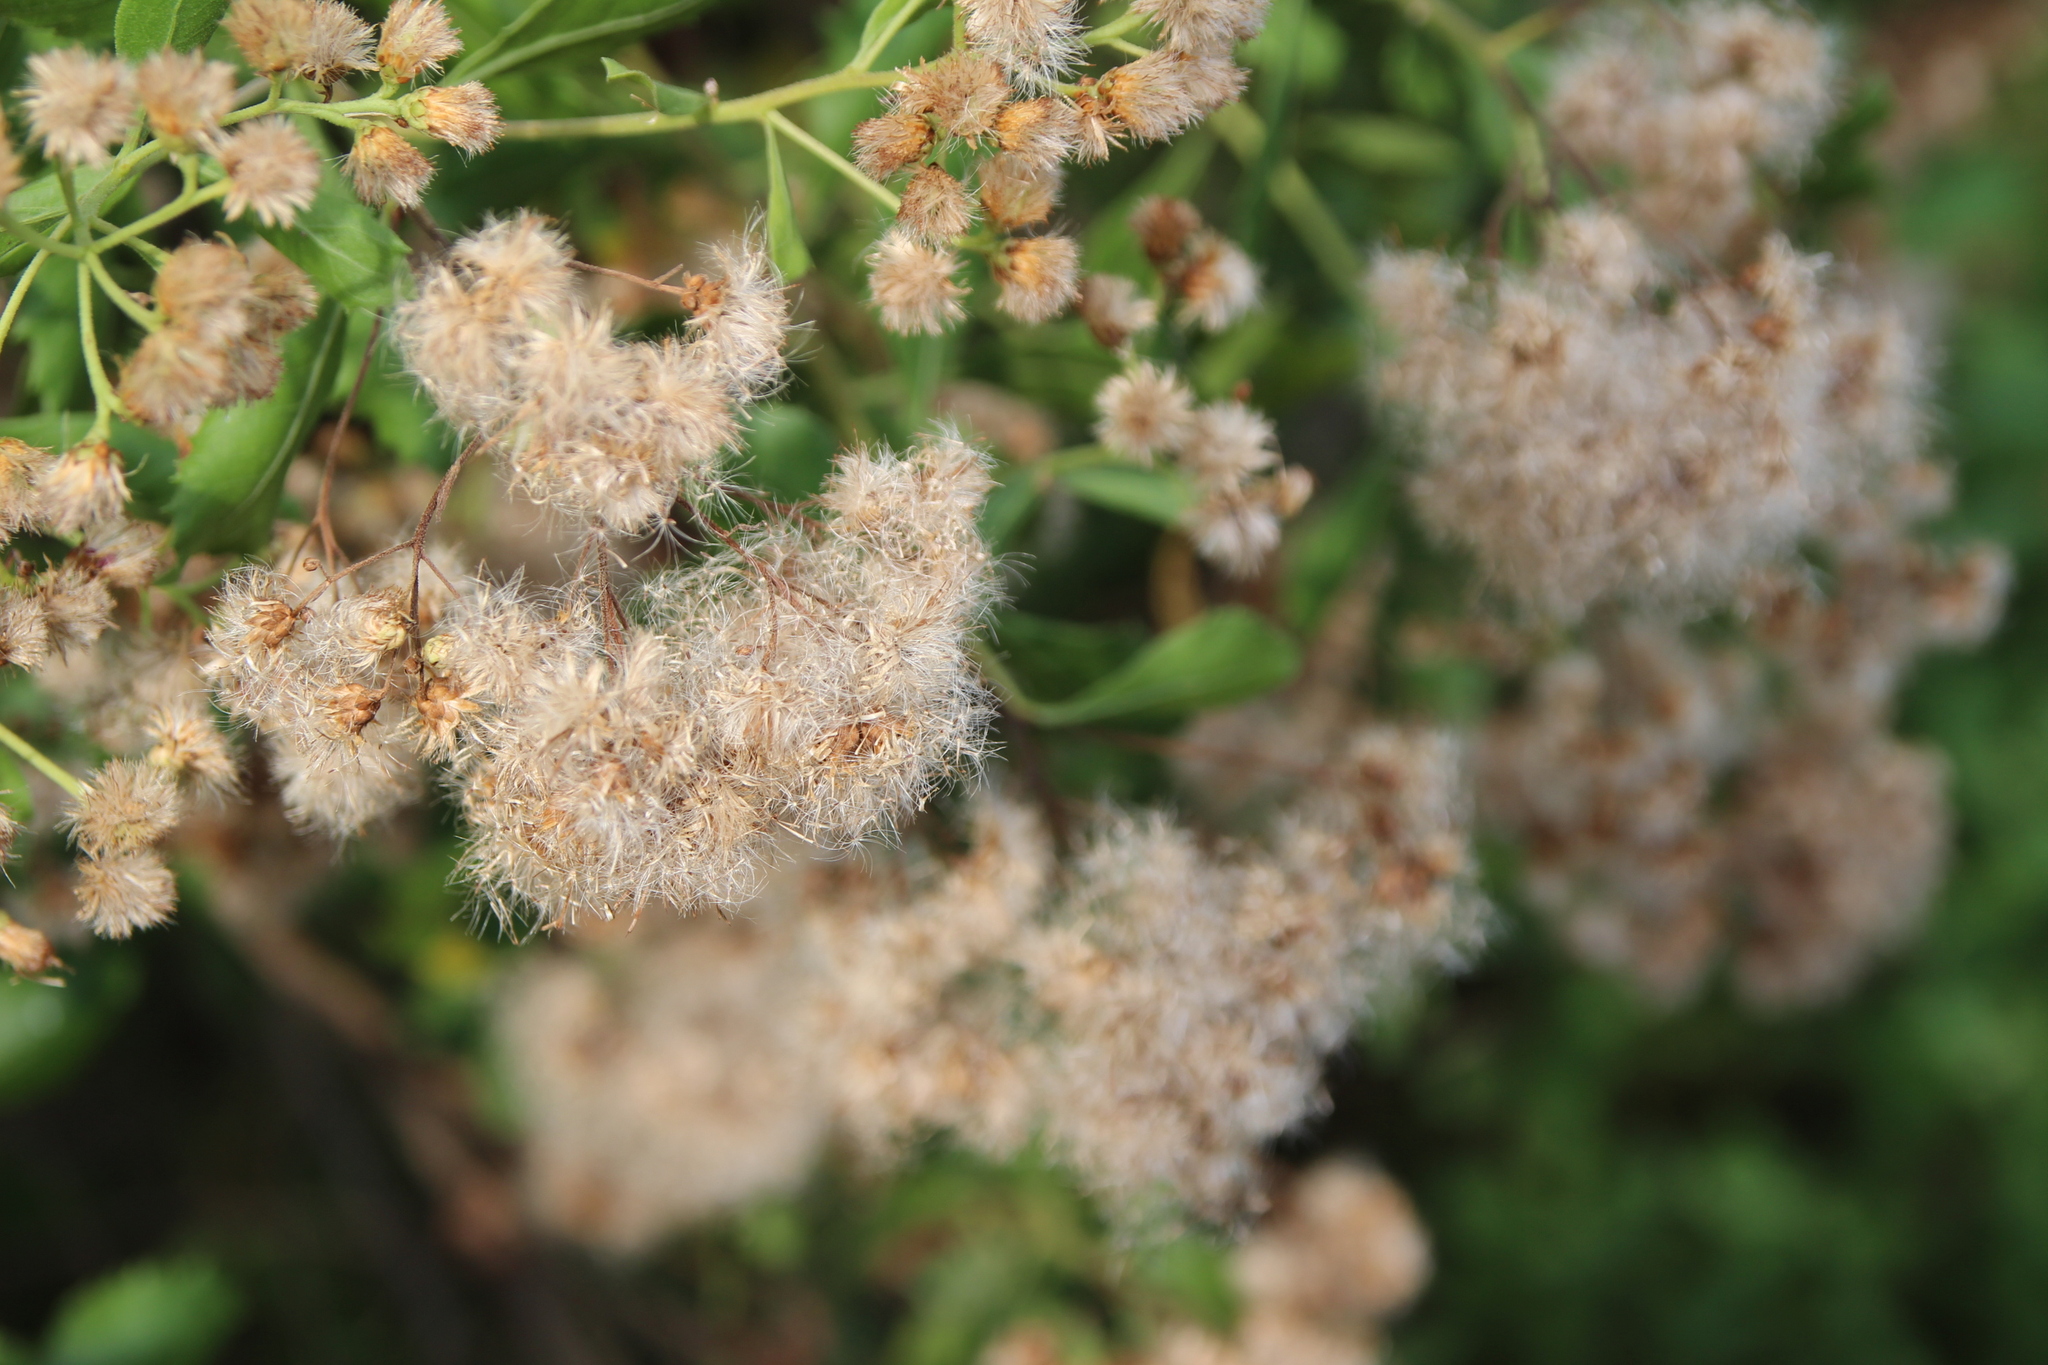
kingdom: Plantae
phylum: Tracheophyta
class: Magnoliopsida
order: Asterales
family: Asteraceae
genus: Pluchea
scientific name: Pluchea indica
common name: Indian fleabane
